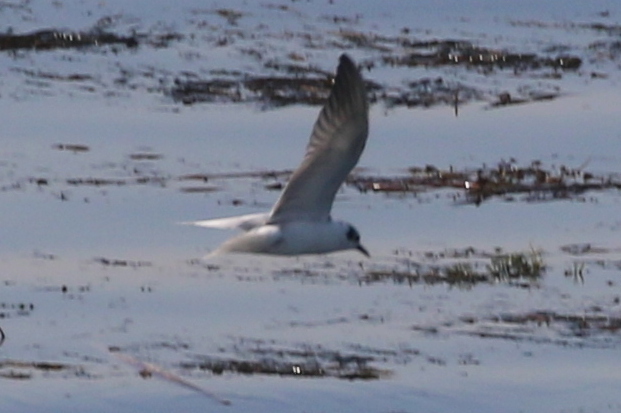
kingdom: Animalia
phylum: Chordata
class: Aves
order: Charadriiformes
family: Laridae
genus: Chlidonias
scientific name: Chlidonias leucopterus
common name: White-winged tern
